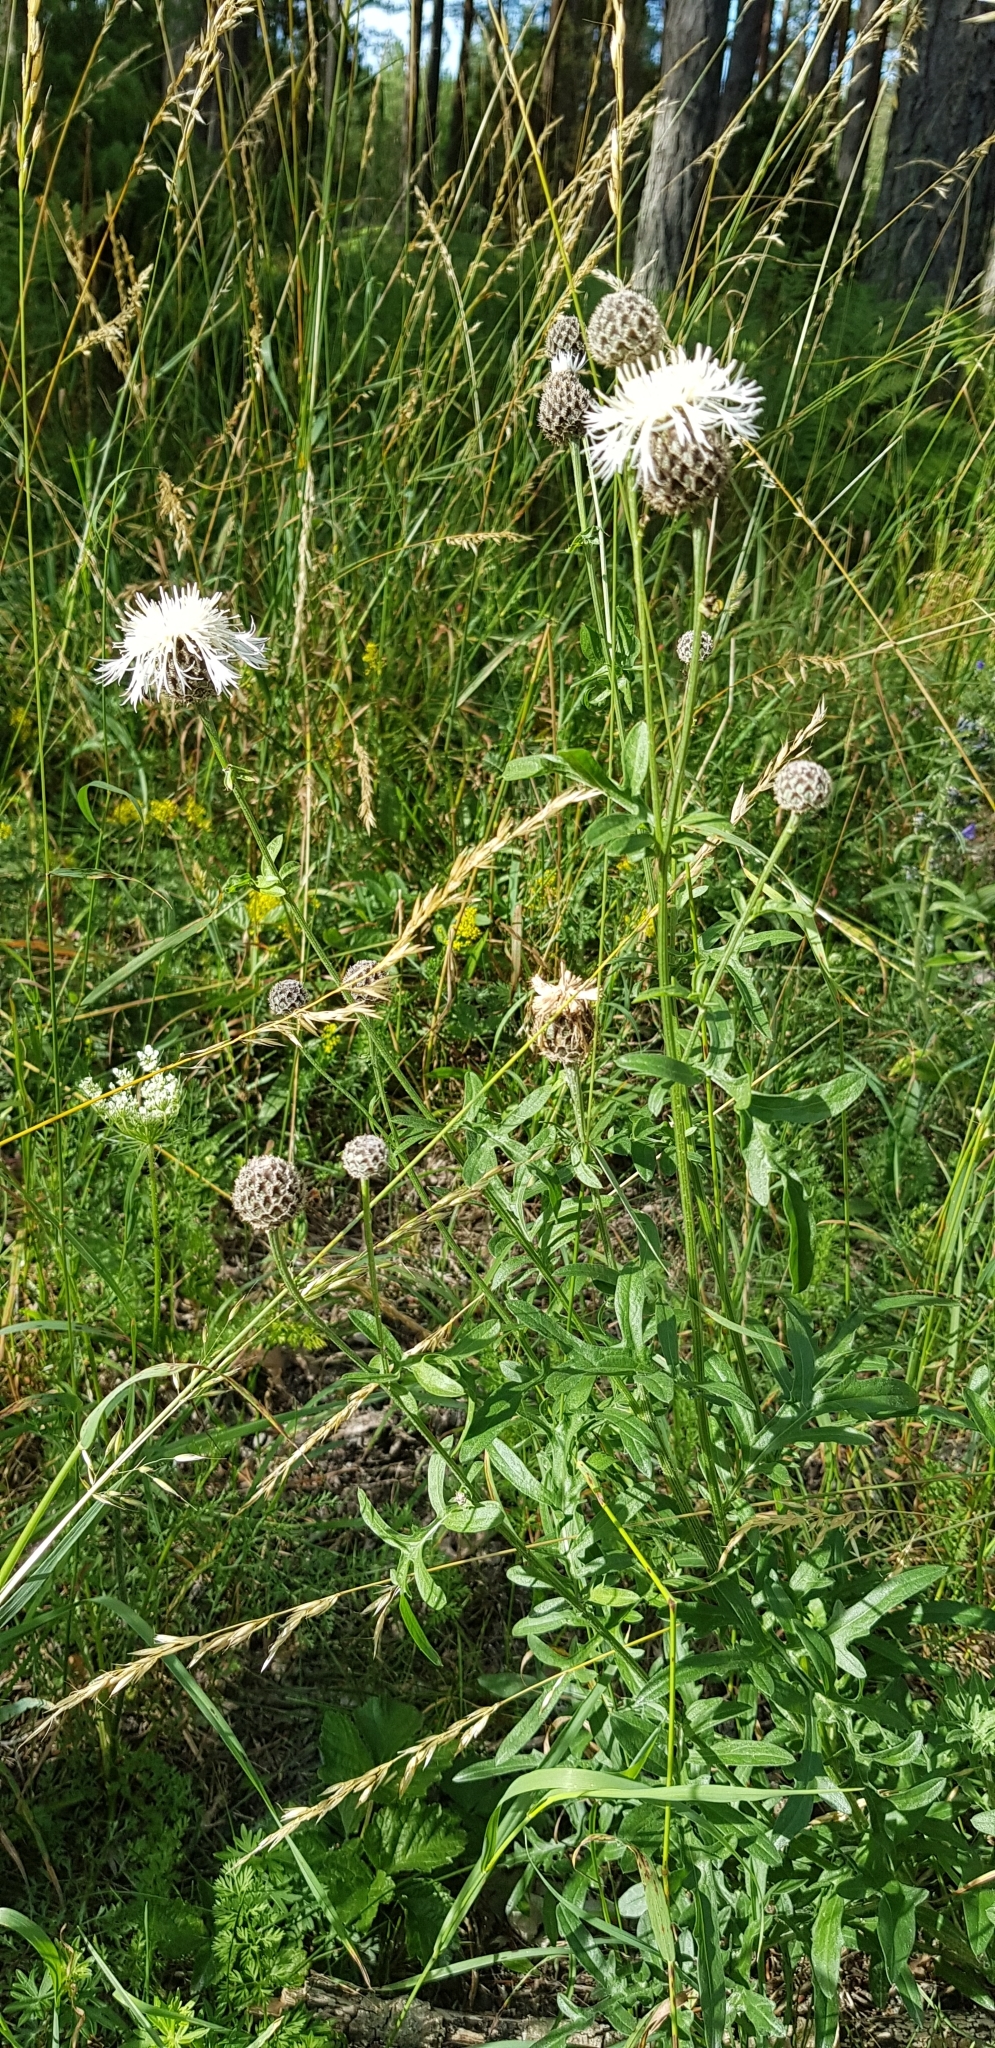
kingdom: Plantae
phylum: Tracheophyta
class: Magnoliopsida
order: Asterales
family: Asteraceae
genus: Centaurea
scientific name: Centaurea scabiosa
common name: Greater knapweed
